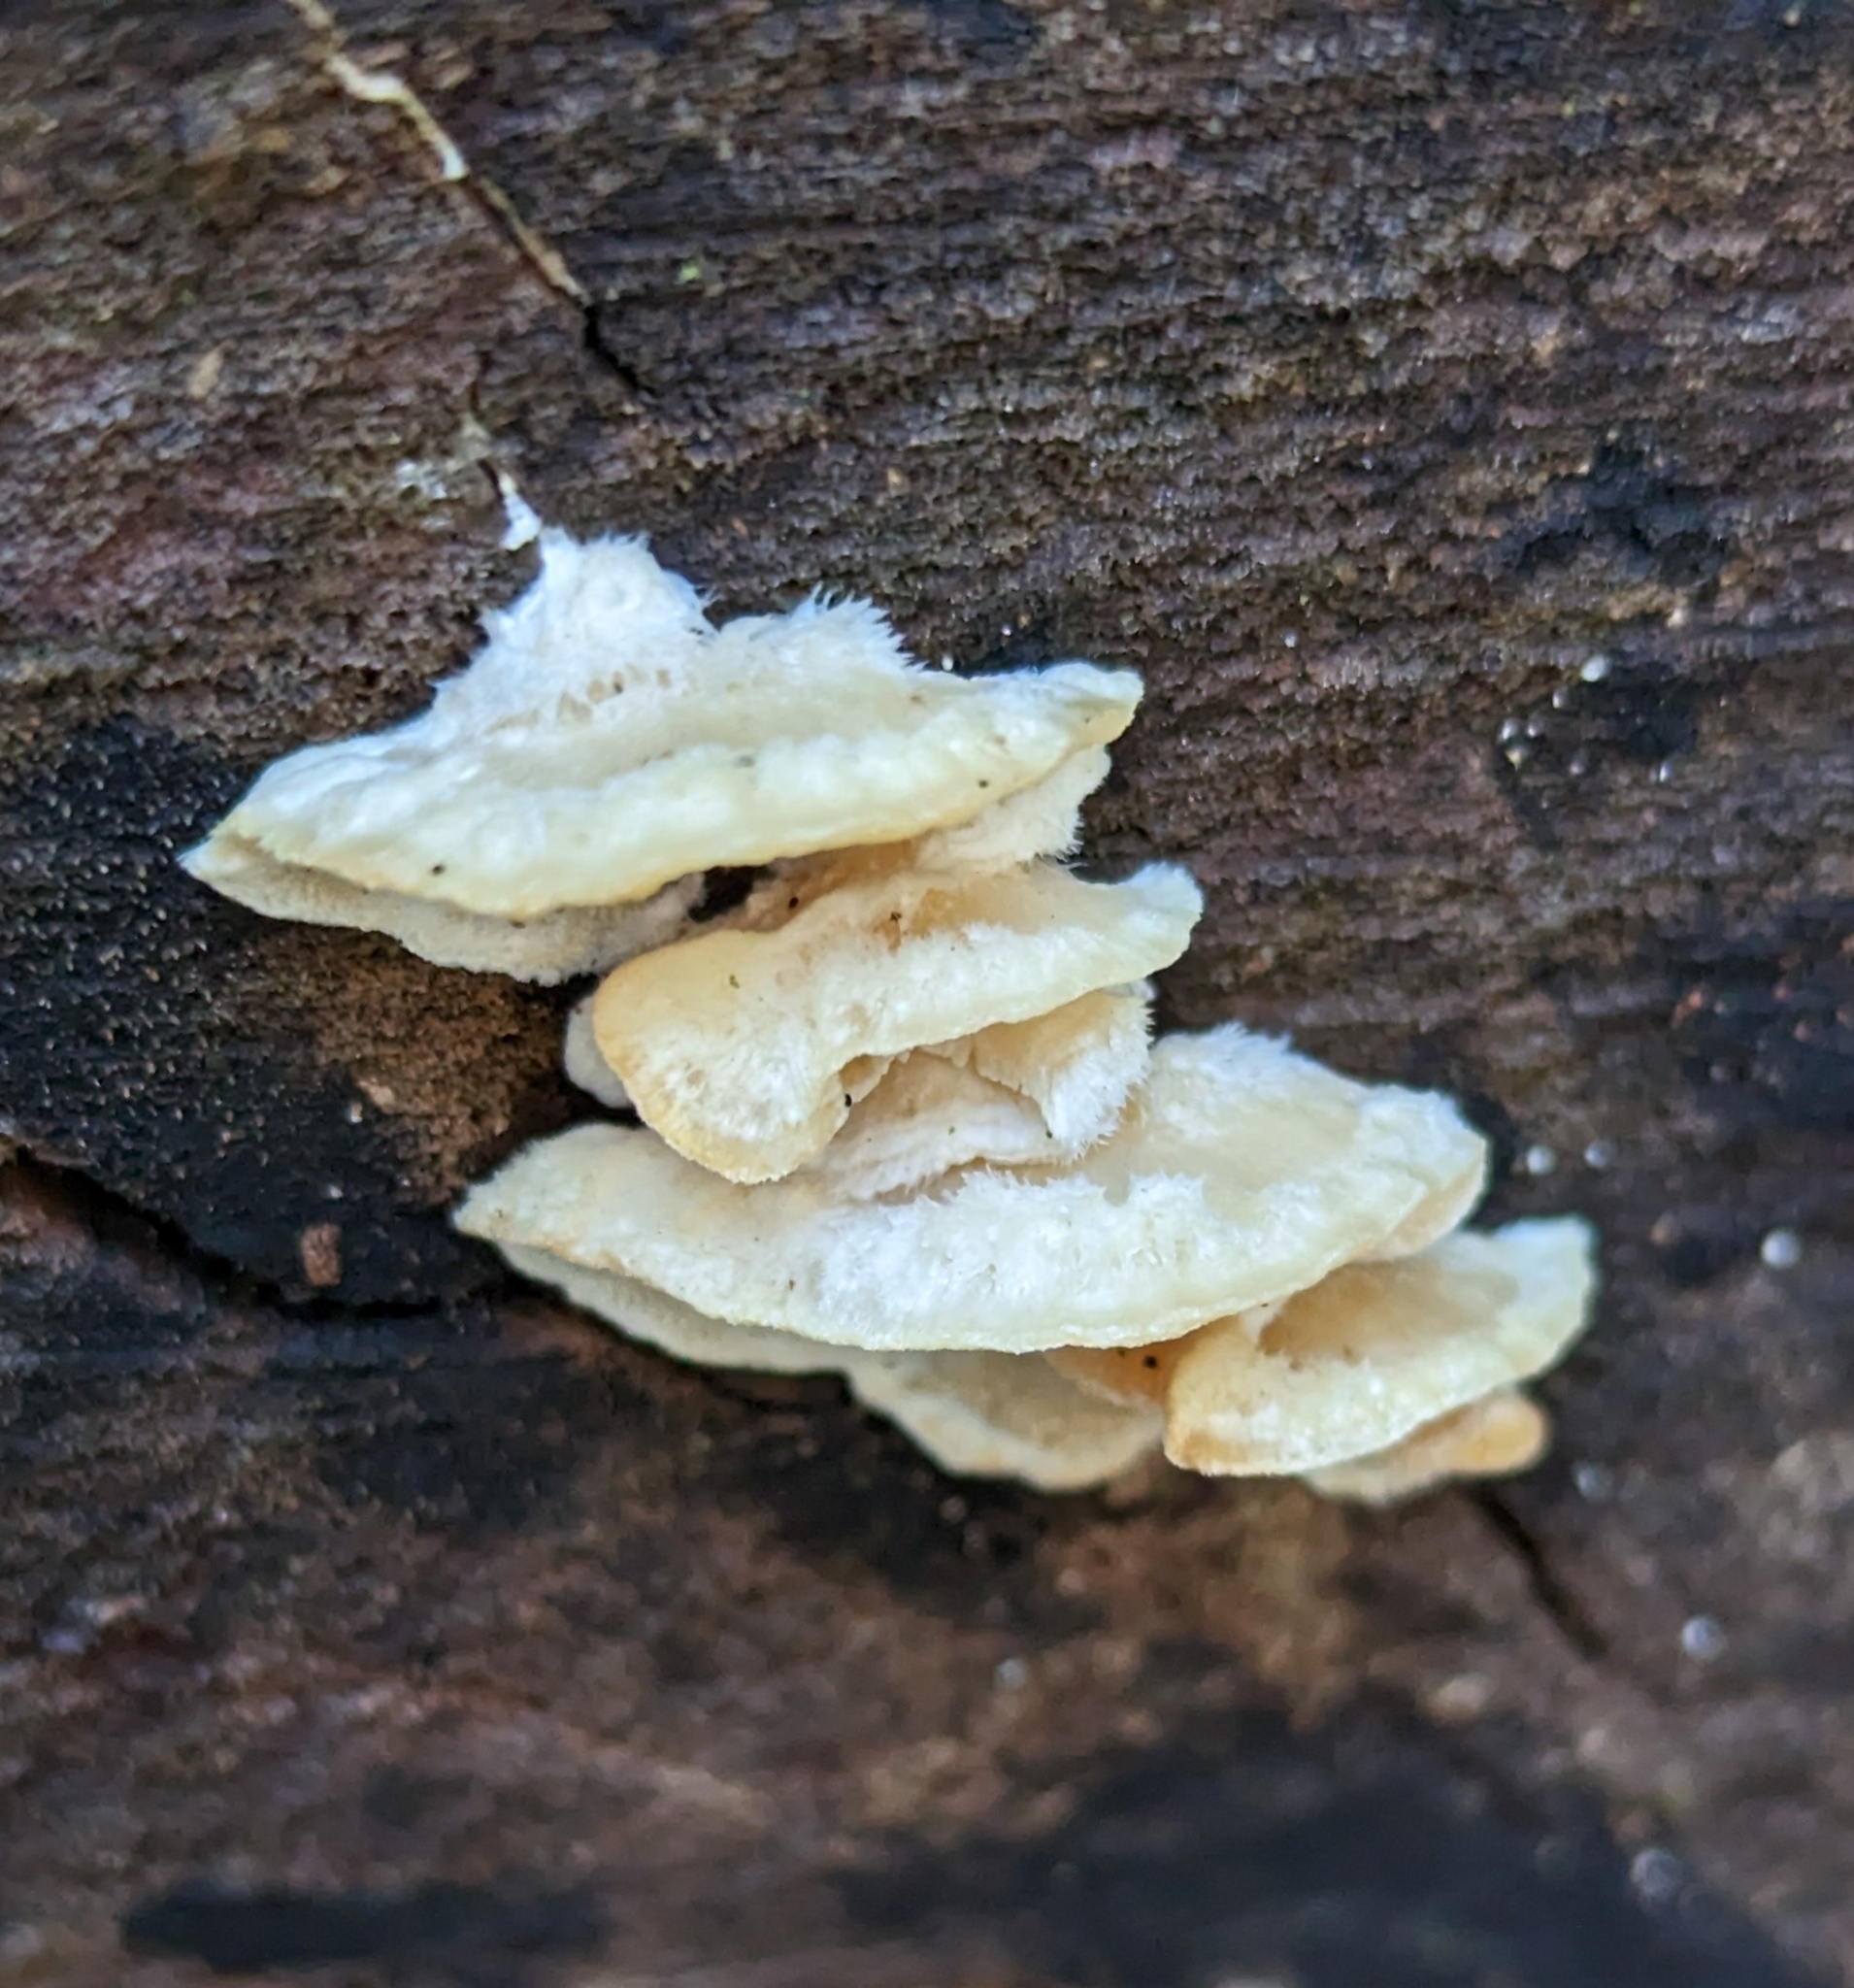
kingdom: Fungi
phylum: Basidiomycota
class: Agaricomycetes
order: Polyporales
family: Meruliaceae
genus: Phlebia
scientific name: Phlebia tremellosa
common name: Jelly rot
